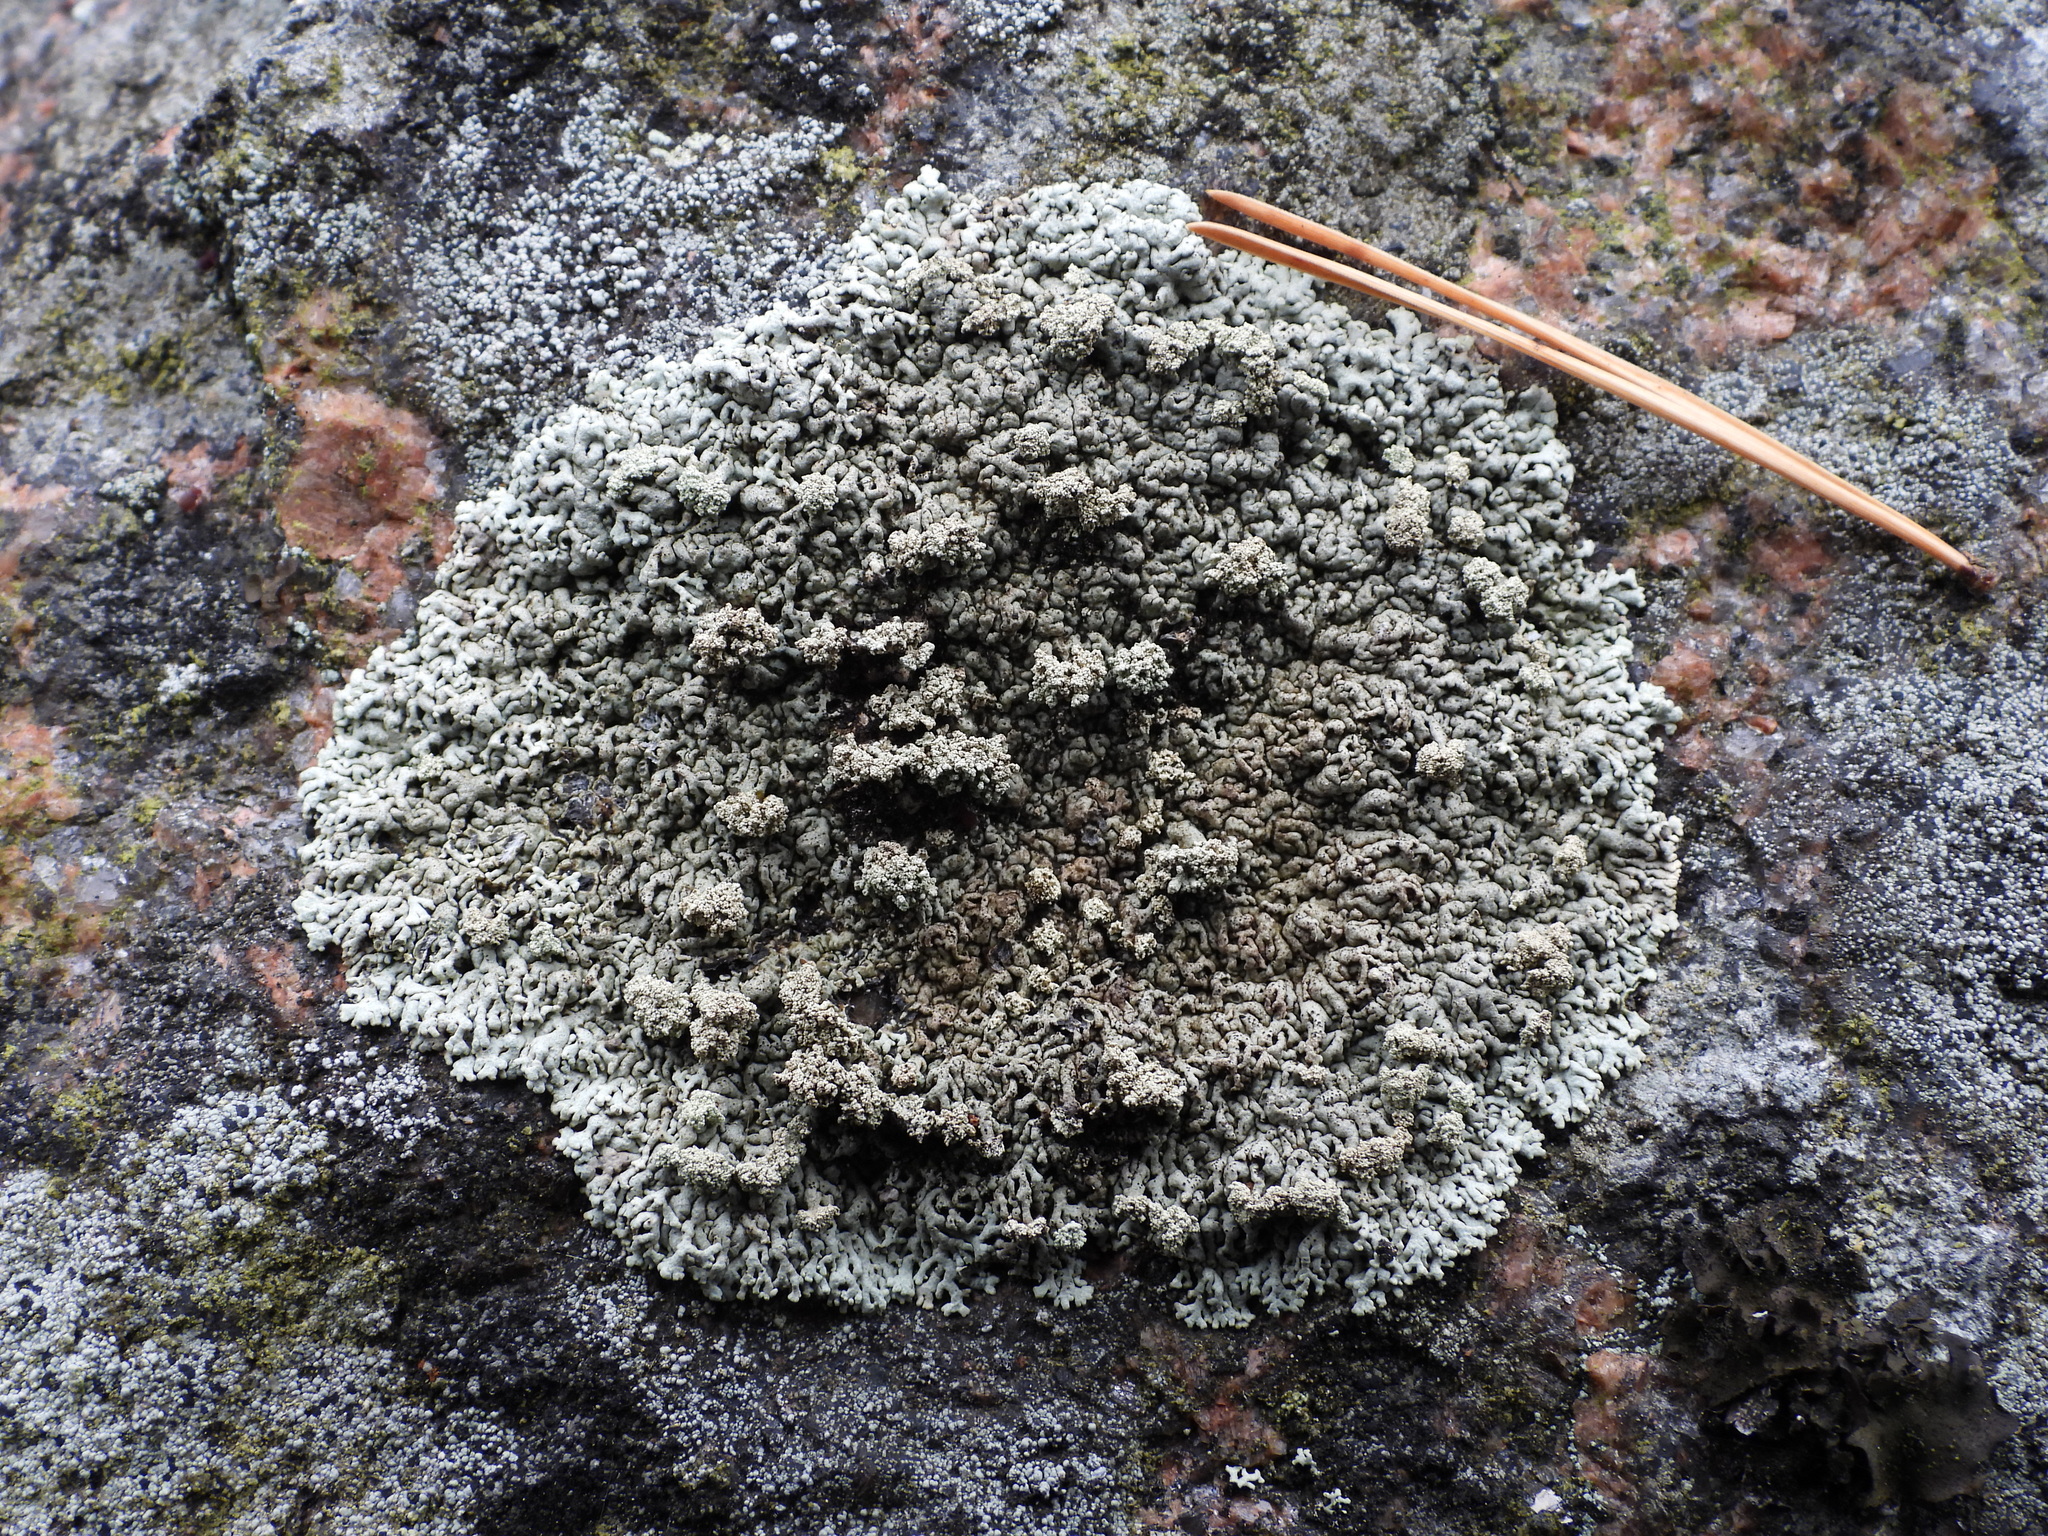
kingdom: Fungi
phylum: Ascomycota
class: Lecanoromycetes
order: Lecanorales
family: Parmeliaceae
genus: Arctoparmelia
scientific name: Arctoparmelia incurva
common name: Bent ring lichen
